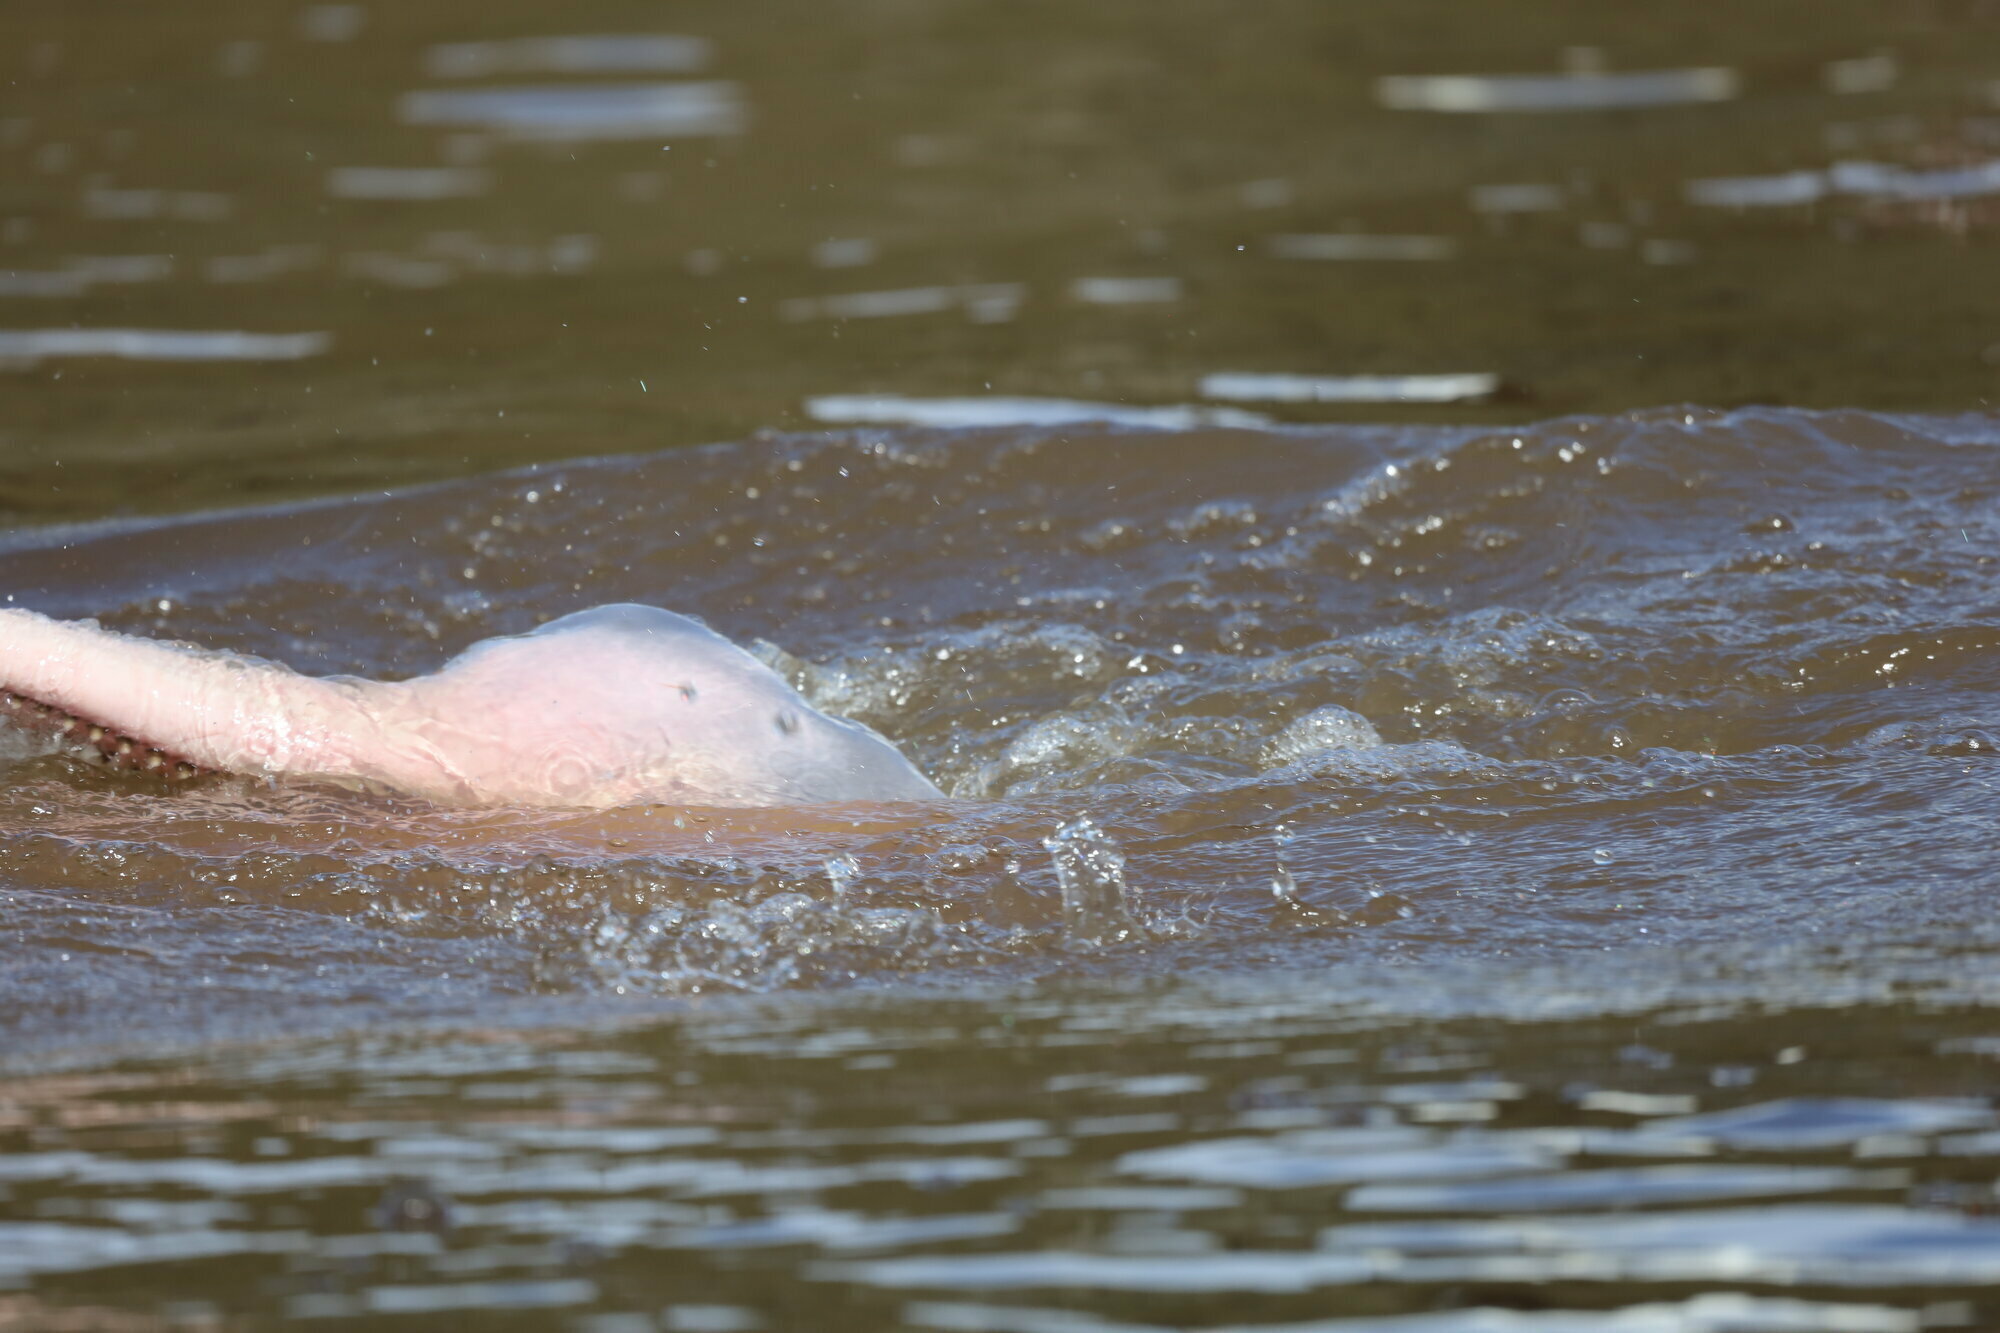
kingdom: Animalia
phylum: Chordata
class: Mammalia
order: Cetacea
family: Iniidae
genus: Inia
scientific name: Inia geoffrensis
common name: Amazon river dolphin
